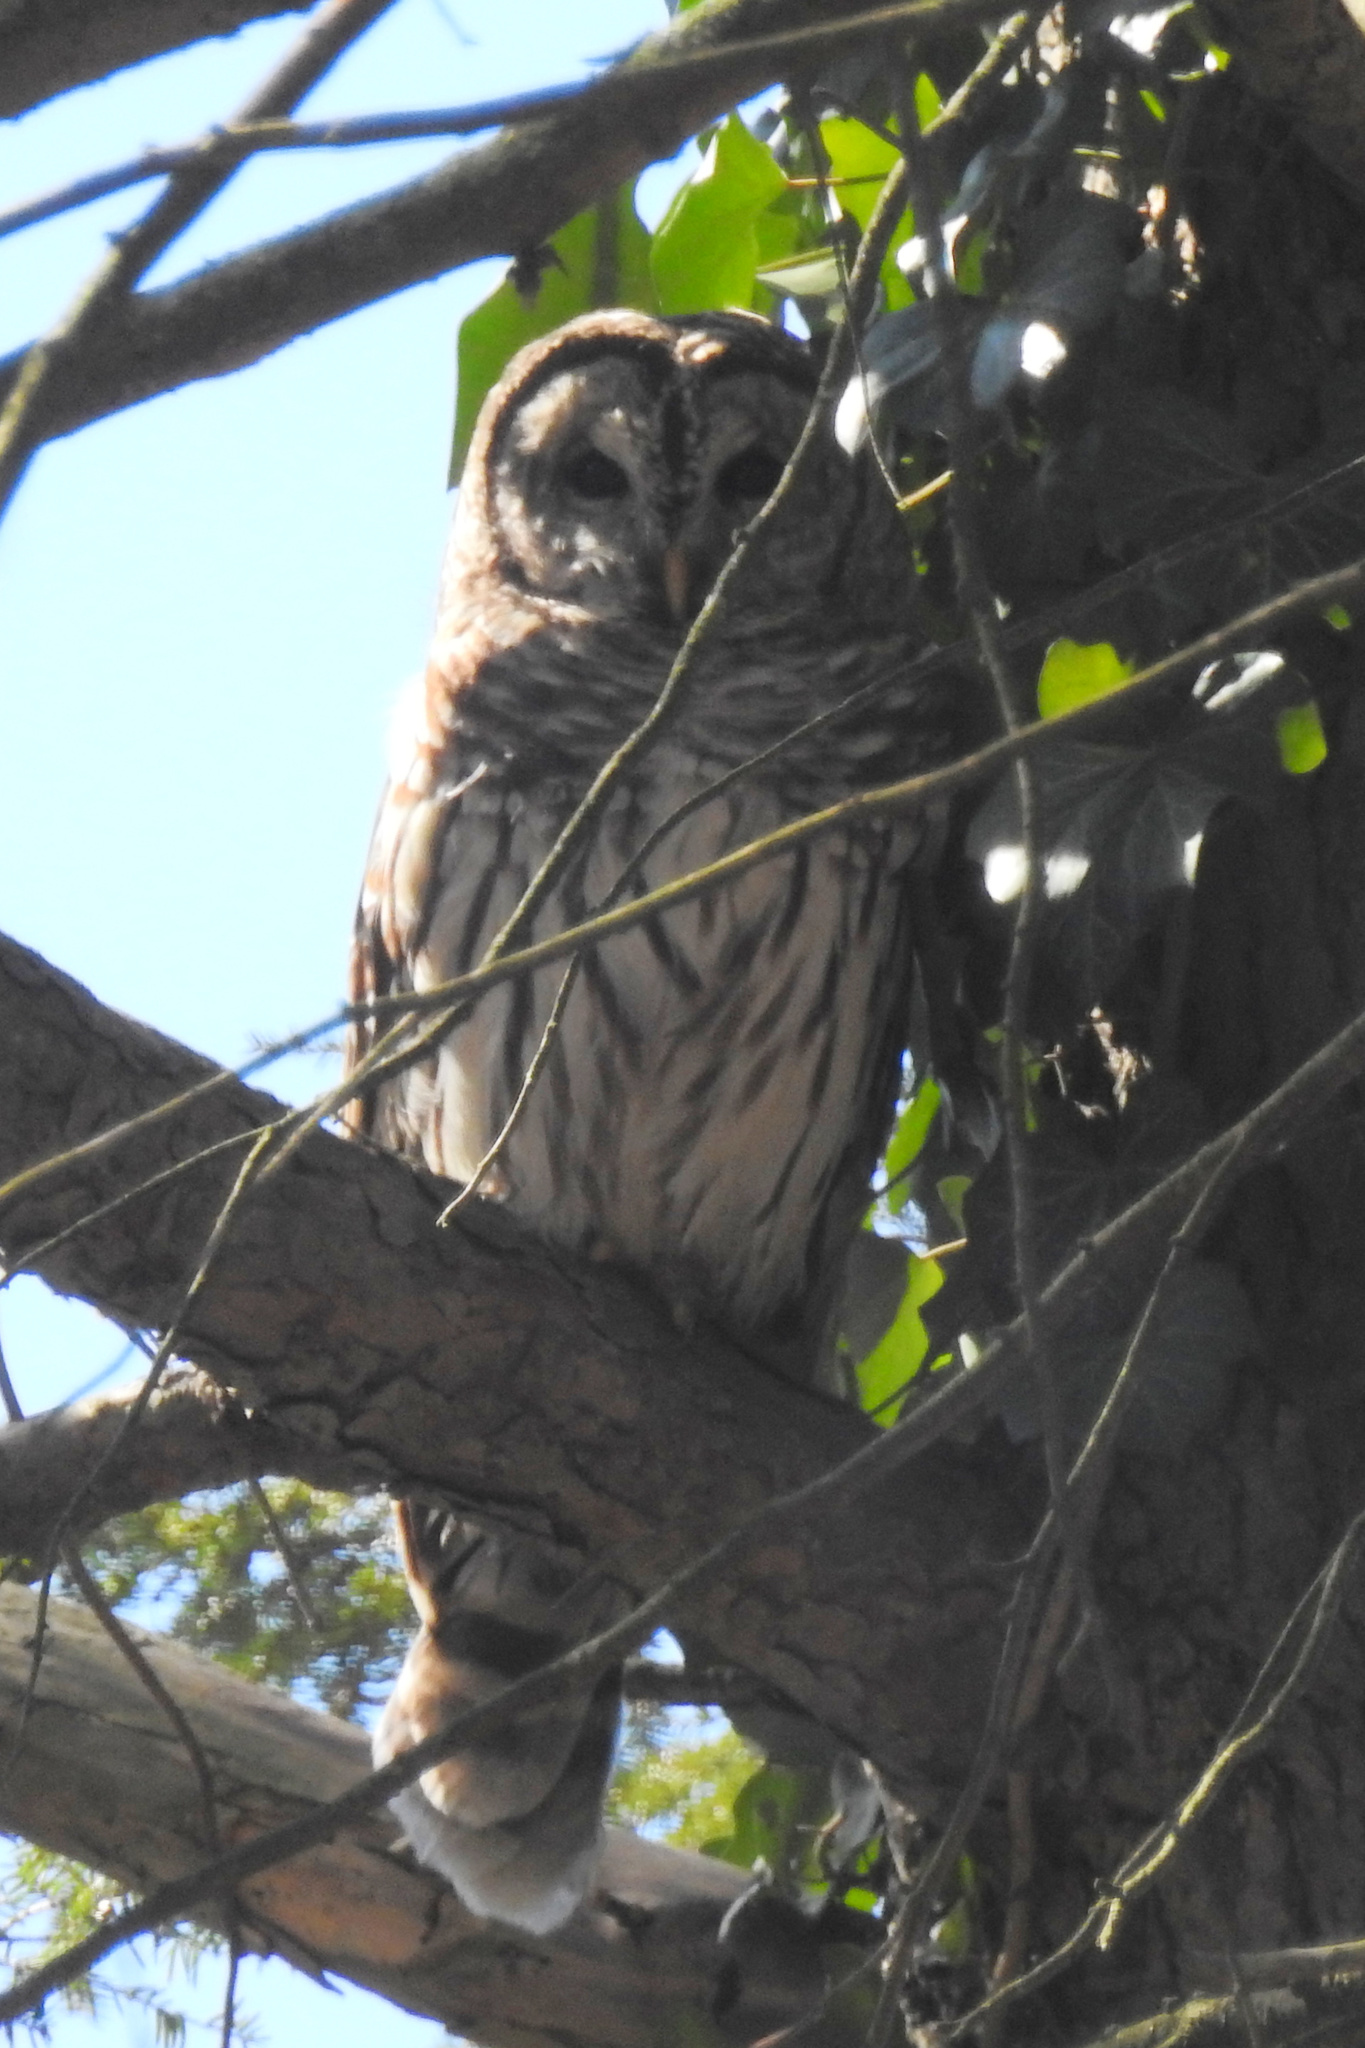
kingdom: Animalia
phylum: Chordata
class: Aves
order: Strigiformes
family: Strigidae
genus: Strix
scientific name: Strix varia
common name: Barred owl
